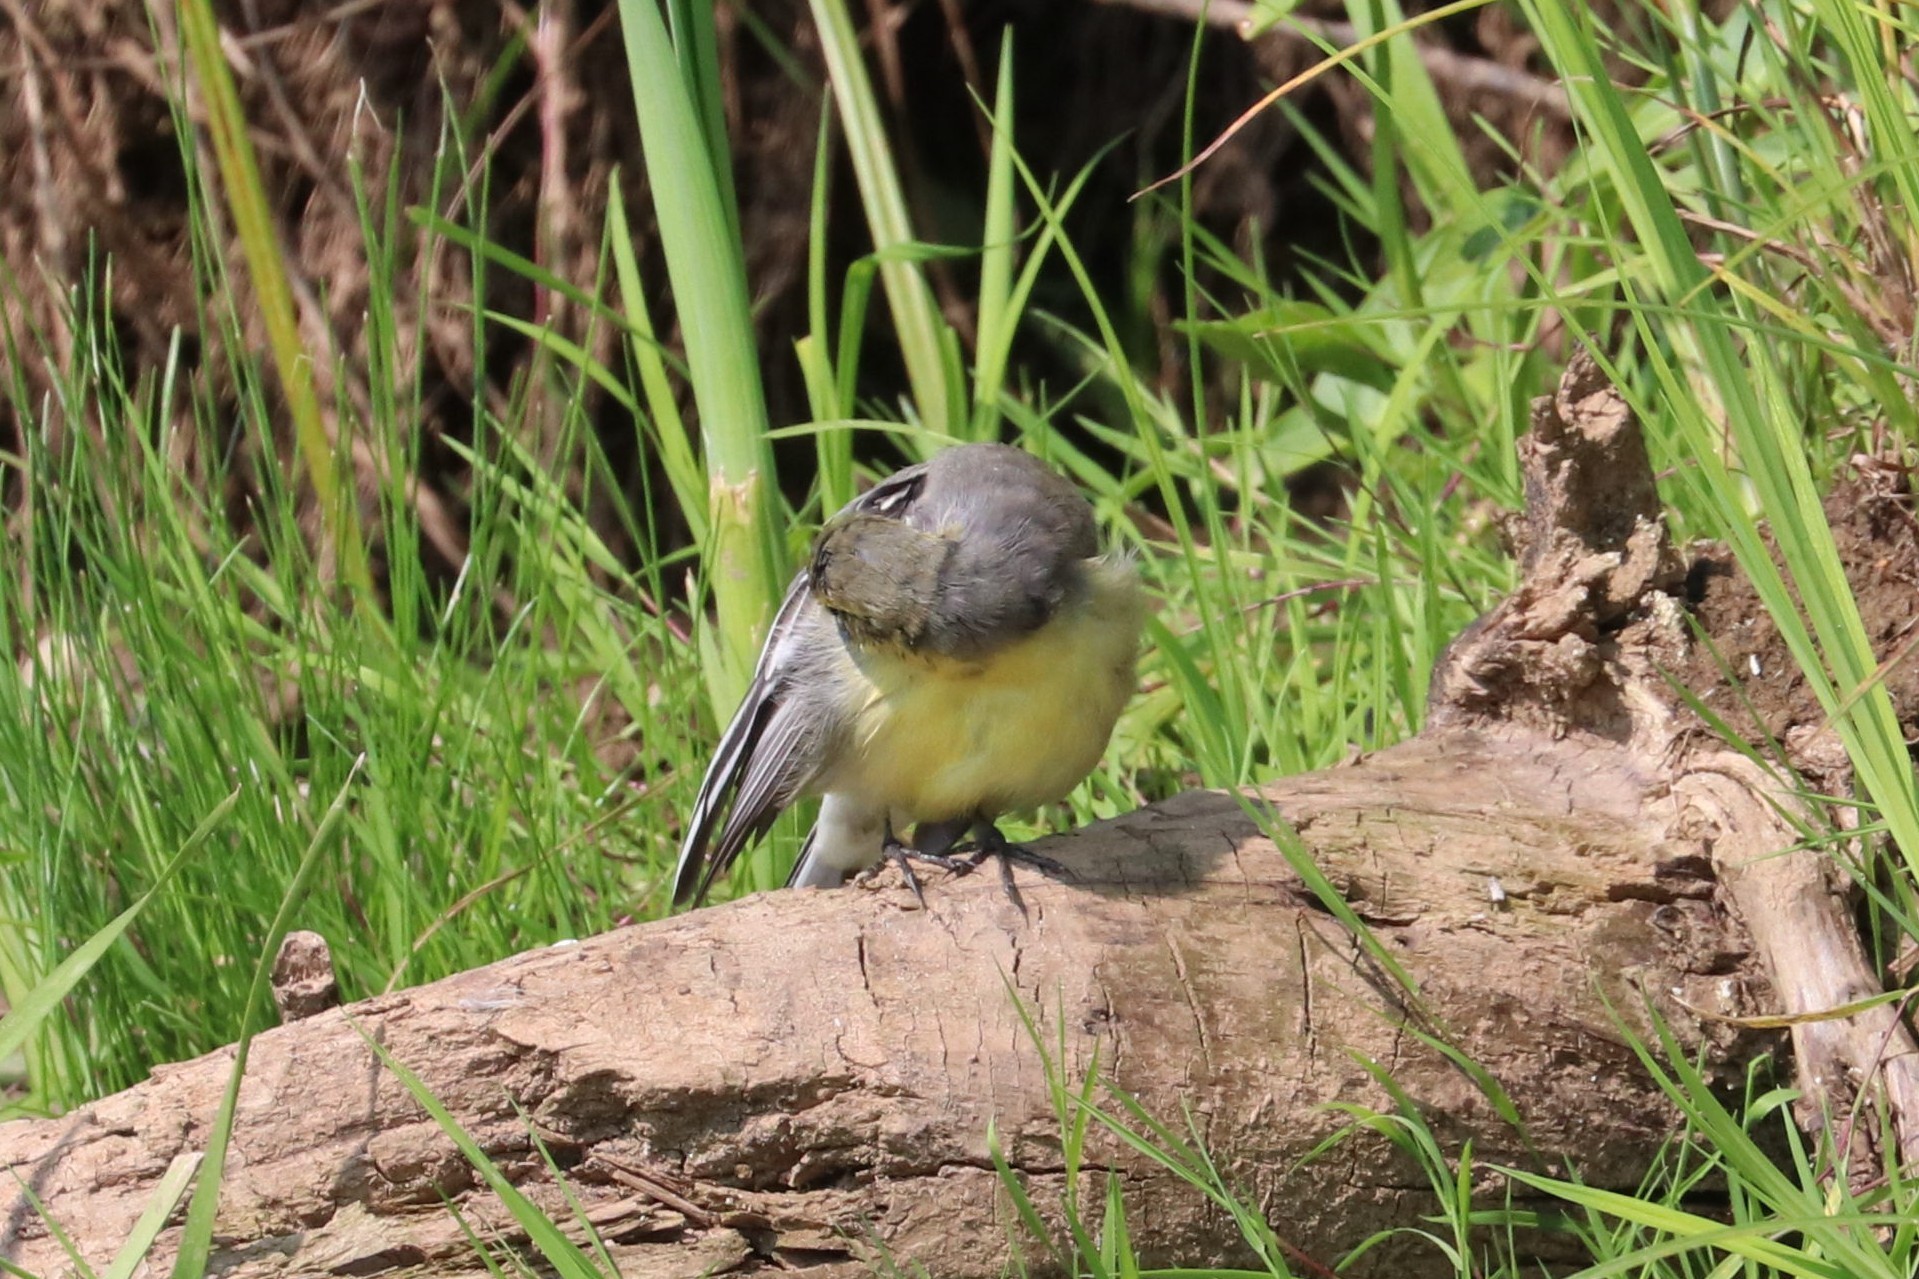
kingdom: Animalia
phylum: Chordata
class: Aves
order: Passeriformes
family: Motacillidae
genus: Motacilla
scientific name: Motacilla citreola
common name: Citrine wagtail
